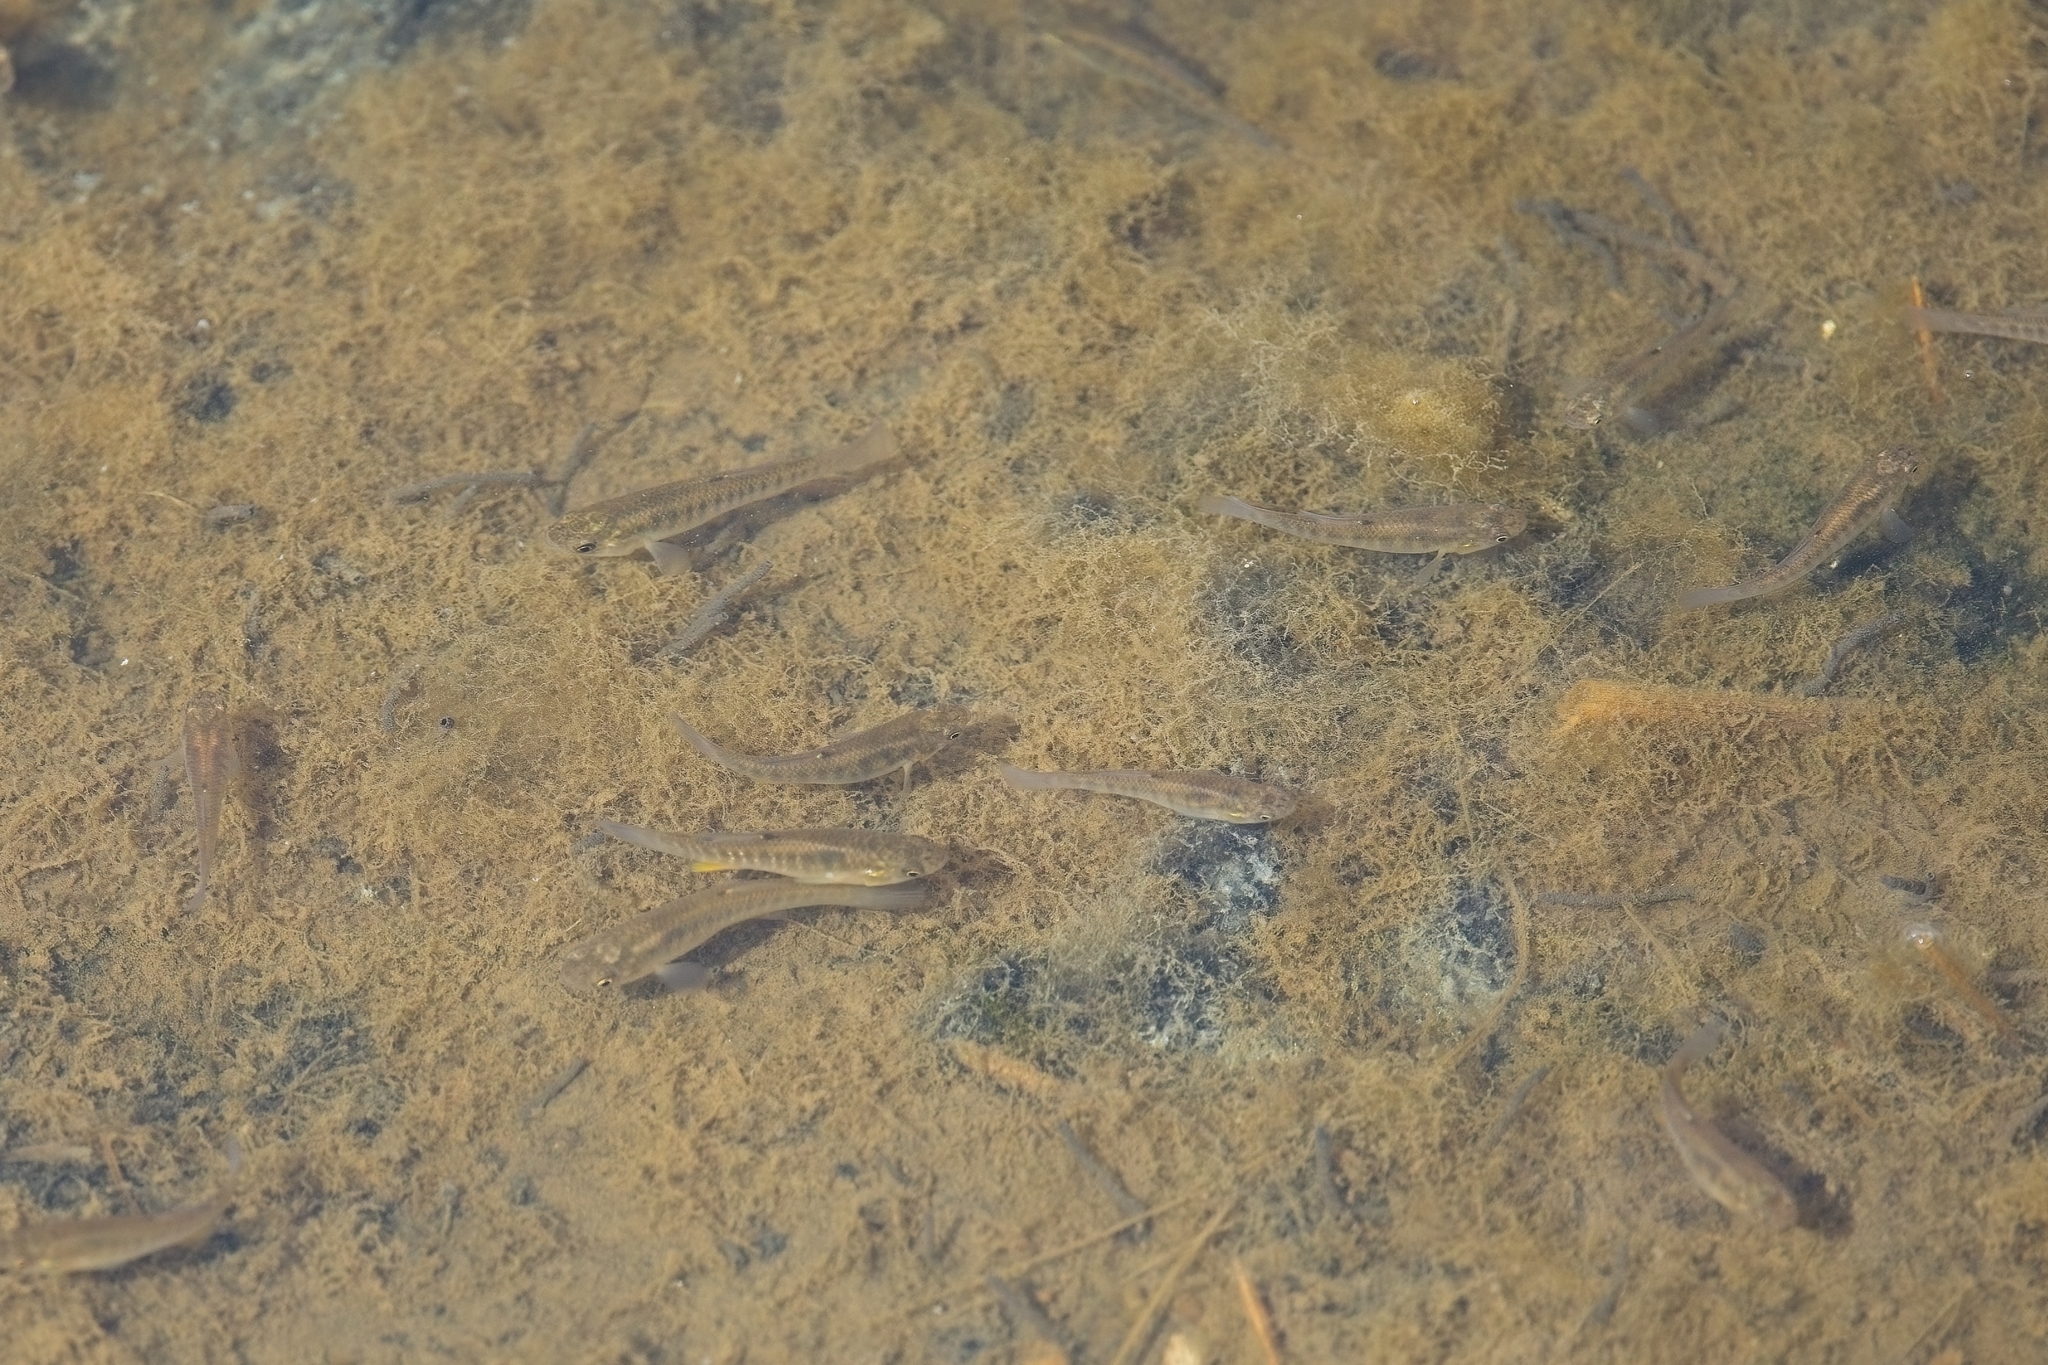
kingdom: Animalia
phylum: Chordata
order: Cyprinodontiformes
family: Fundulidae
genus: Fundulus
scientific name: Fundulus heteroclitus
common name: Mummichog
